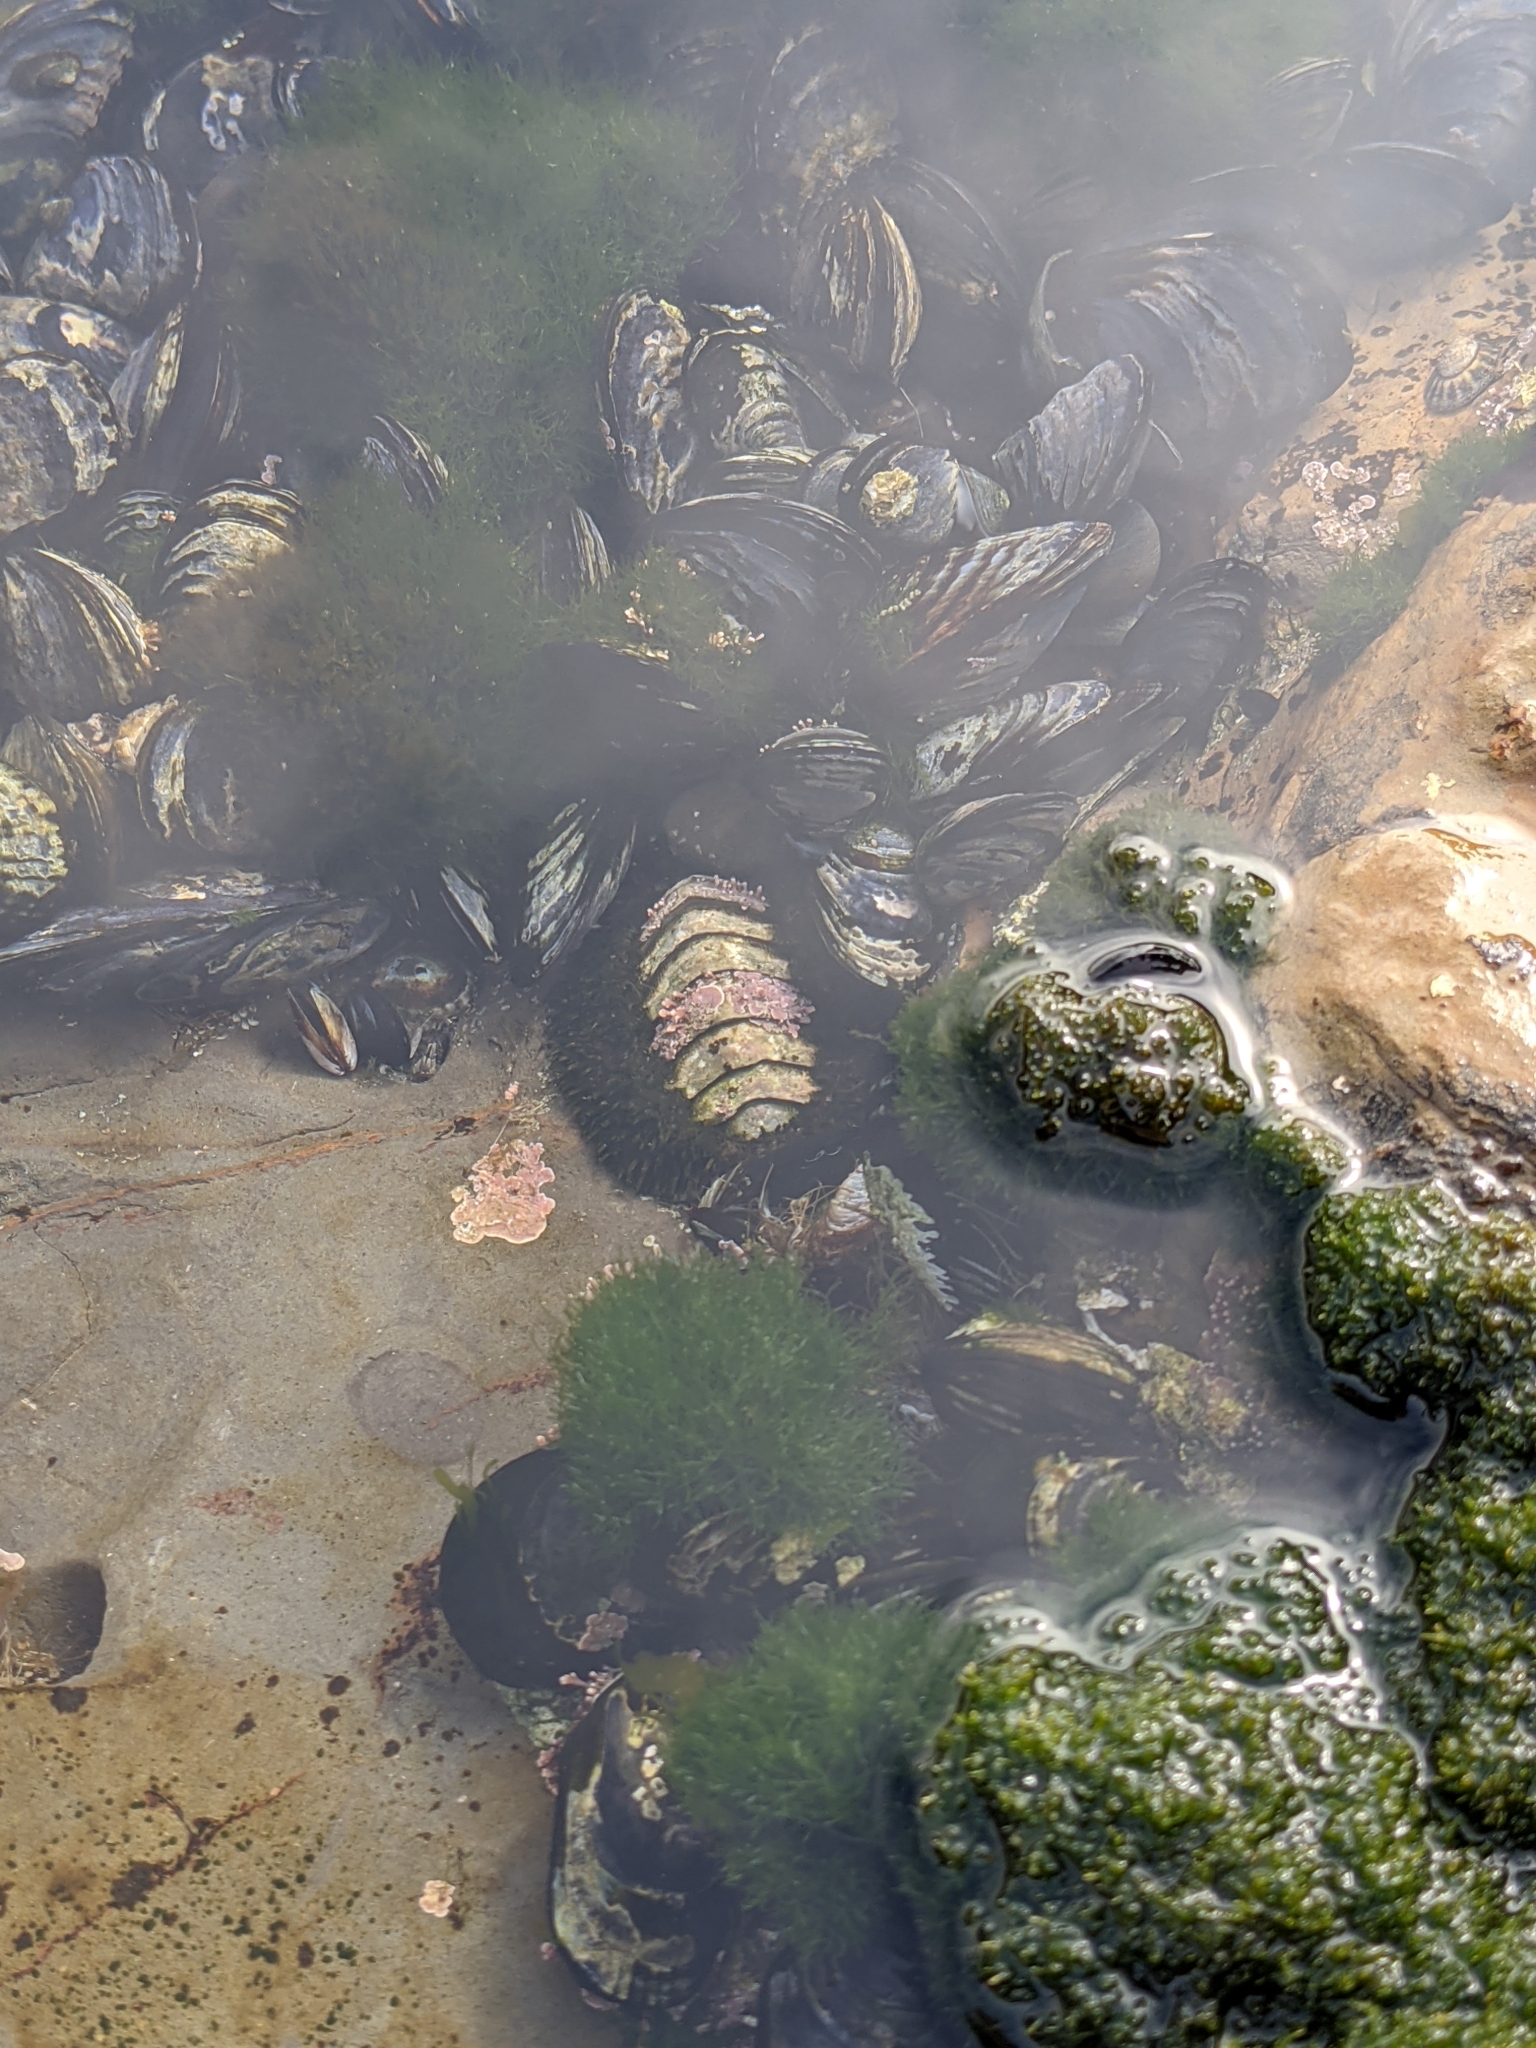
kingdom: Animalia
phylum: Mollusca
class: Polyplacophora
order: Chitonida
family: Mopaliidae
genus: Mopalia
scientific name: Mopalia muscosa
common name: Mossy chiton
